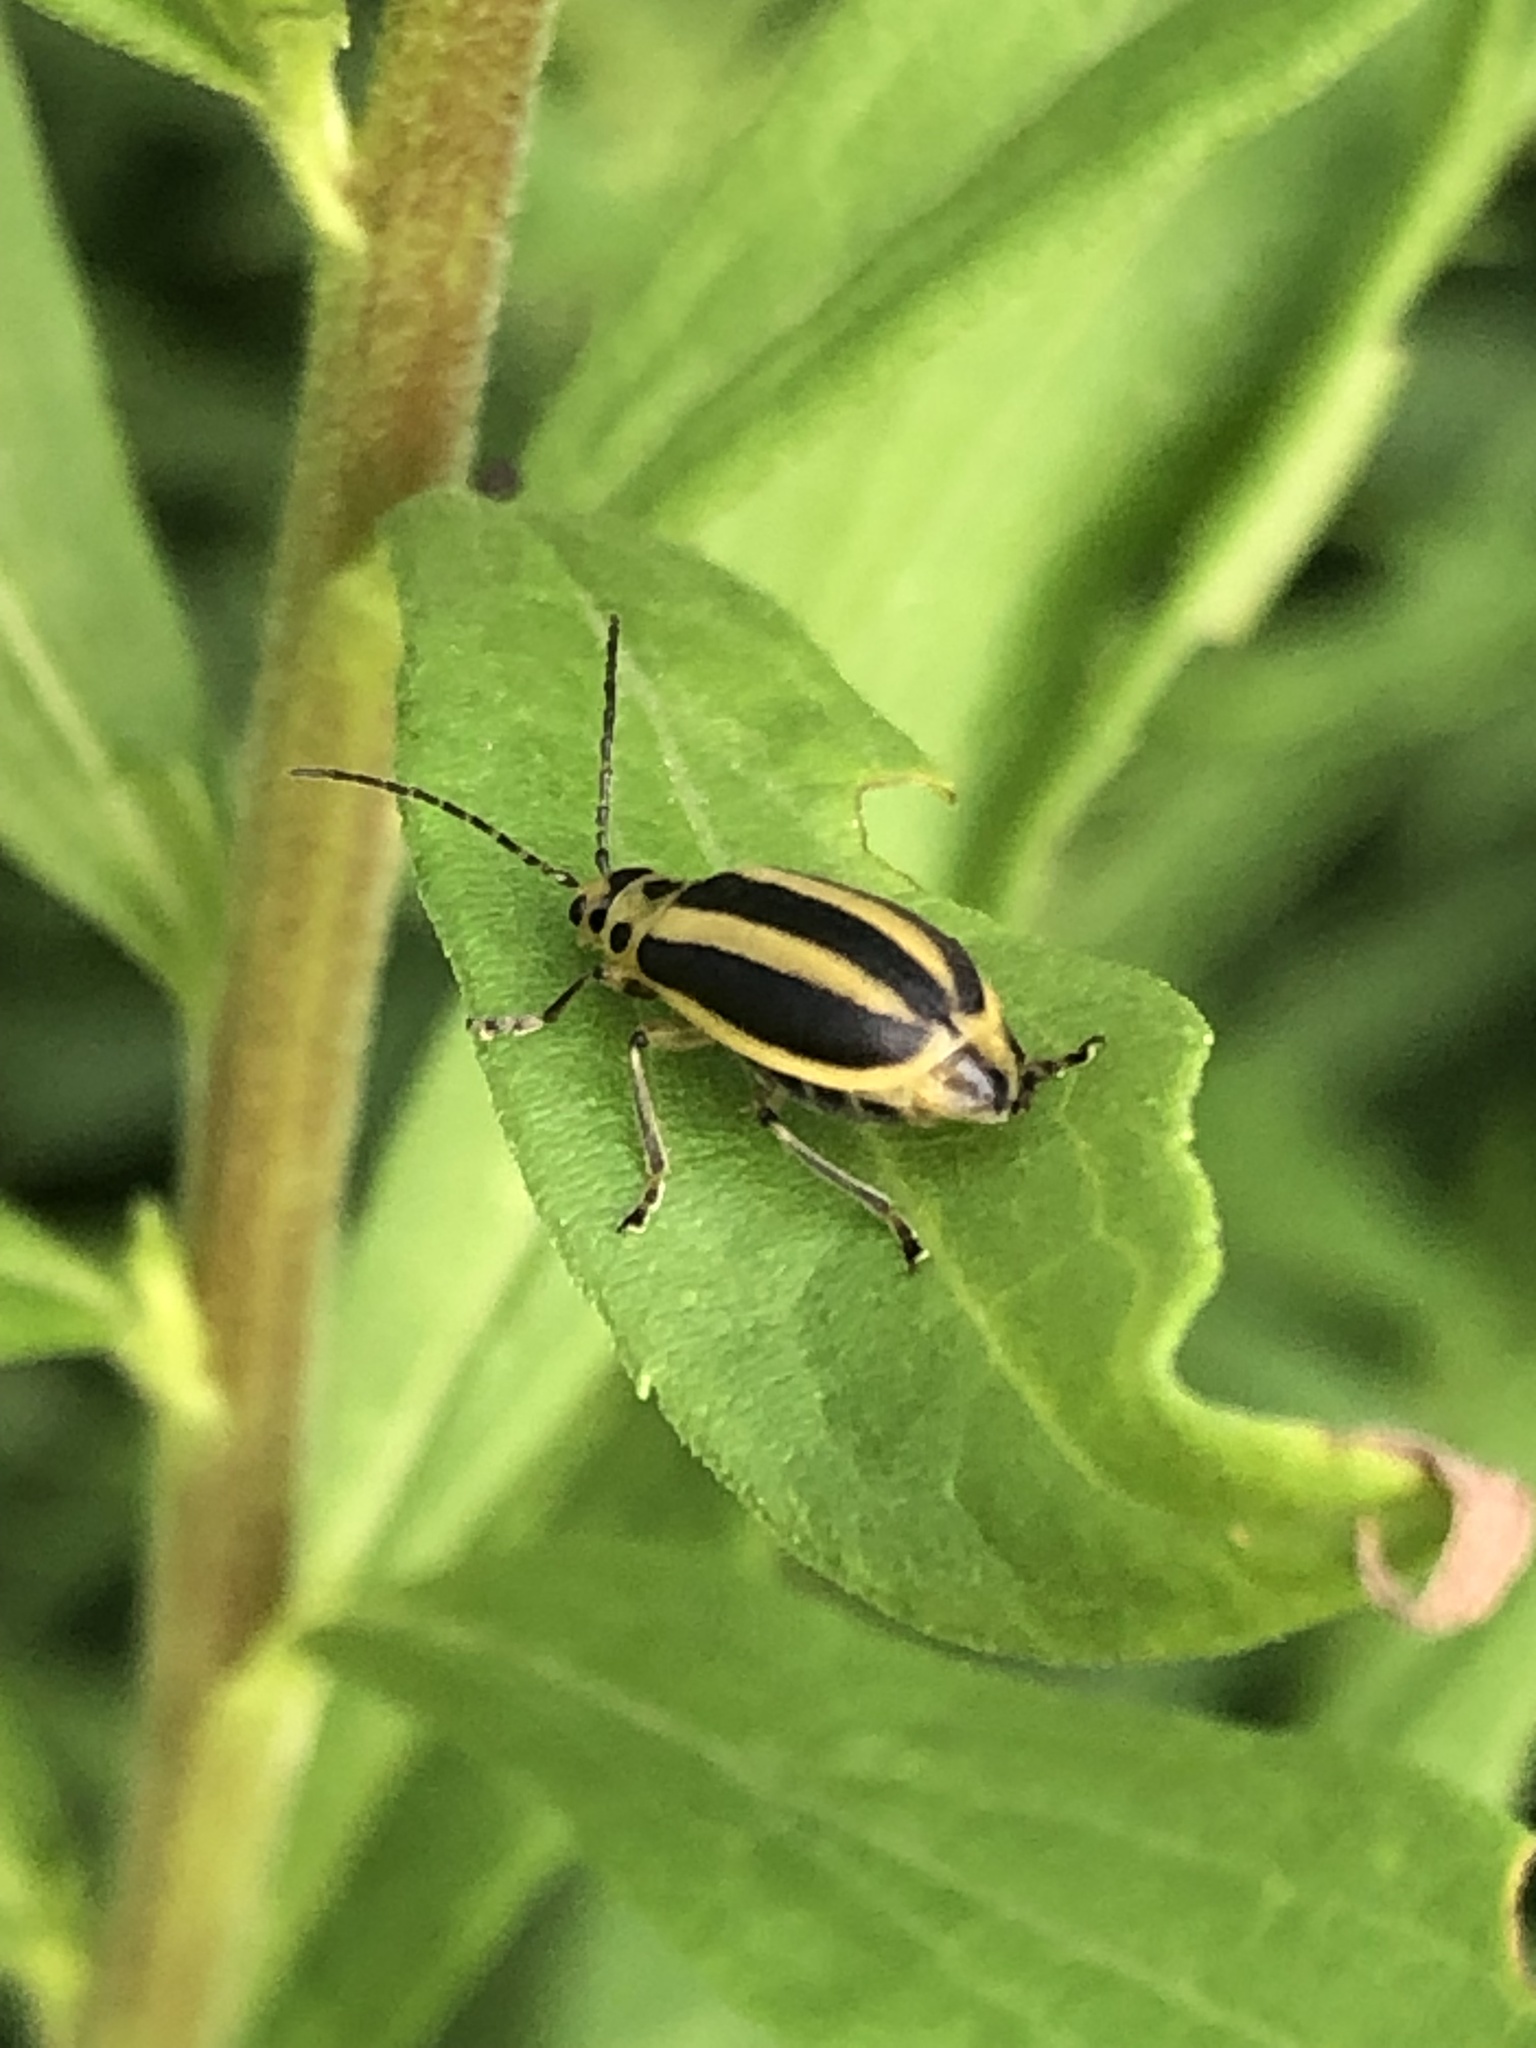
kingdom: Animalia
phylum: Arthropoda
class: Insecta
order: Coleoptera
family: Chrysomelidae
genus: Trirhabda
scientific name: Trirhabda canadensis
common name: Goldenrod leaf beetle
